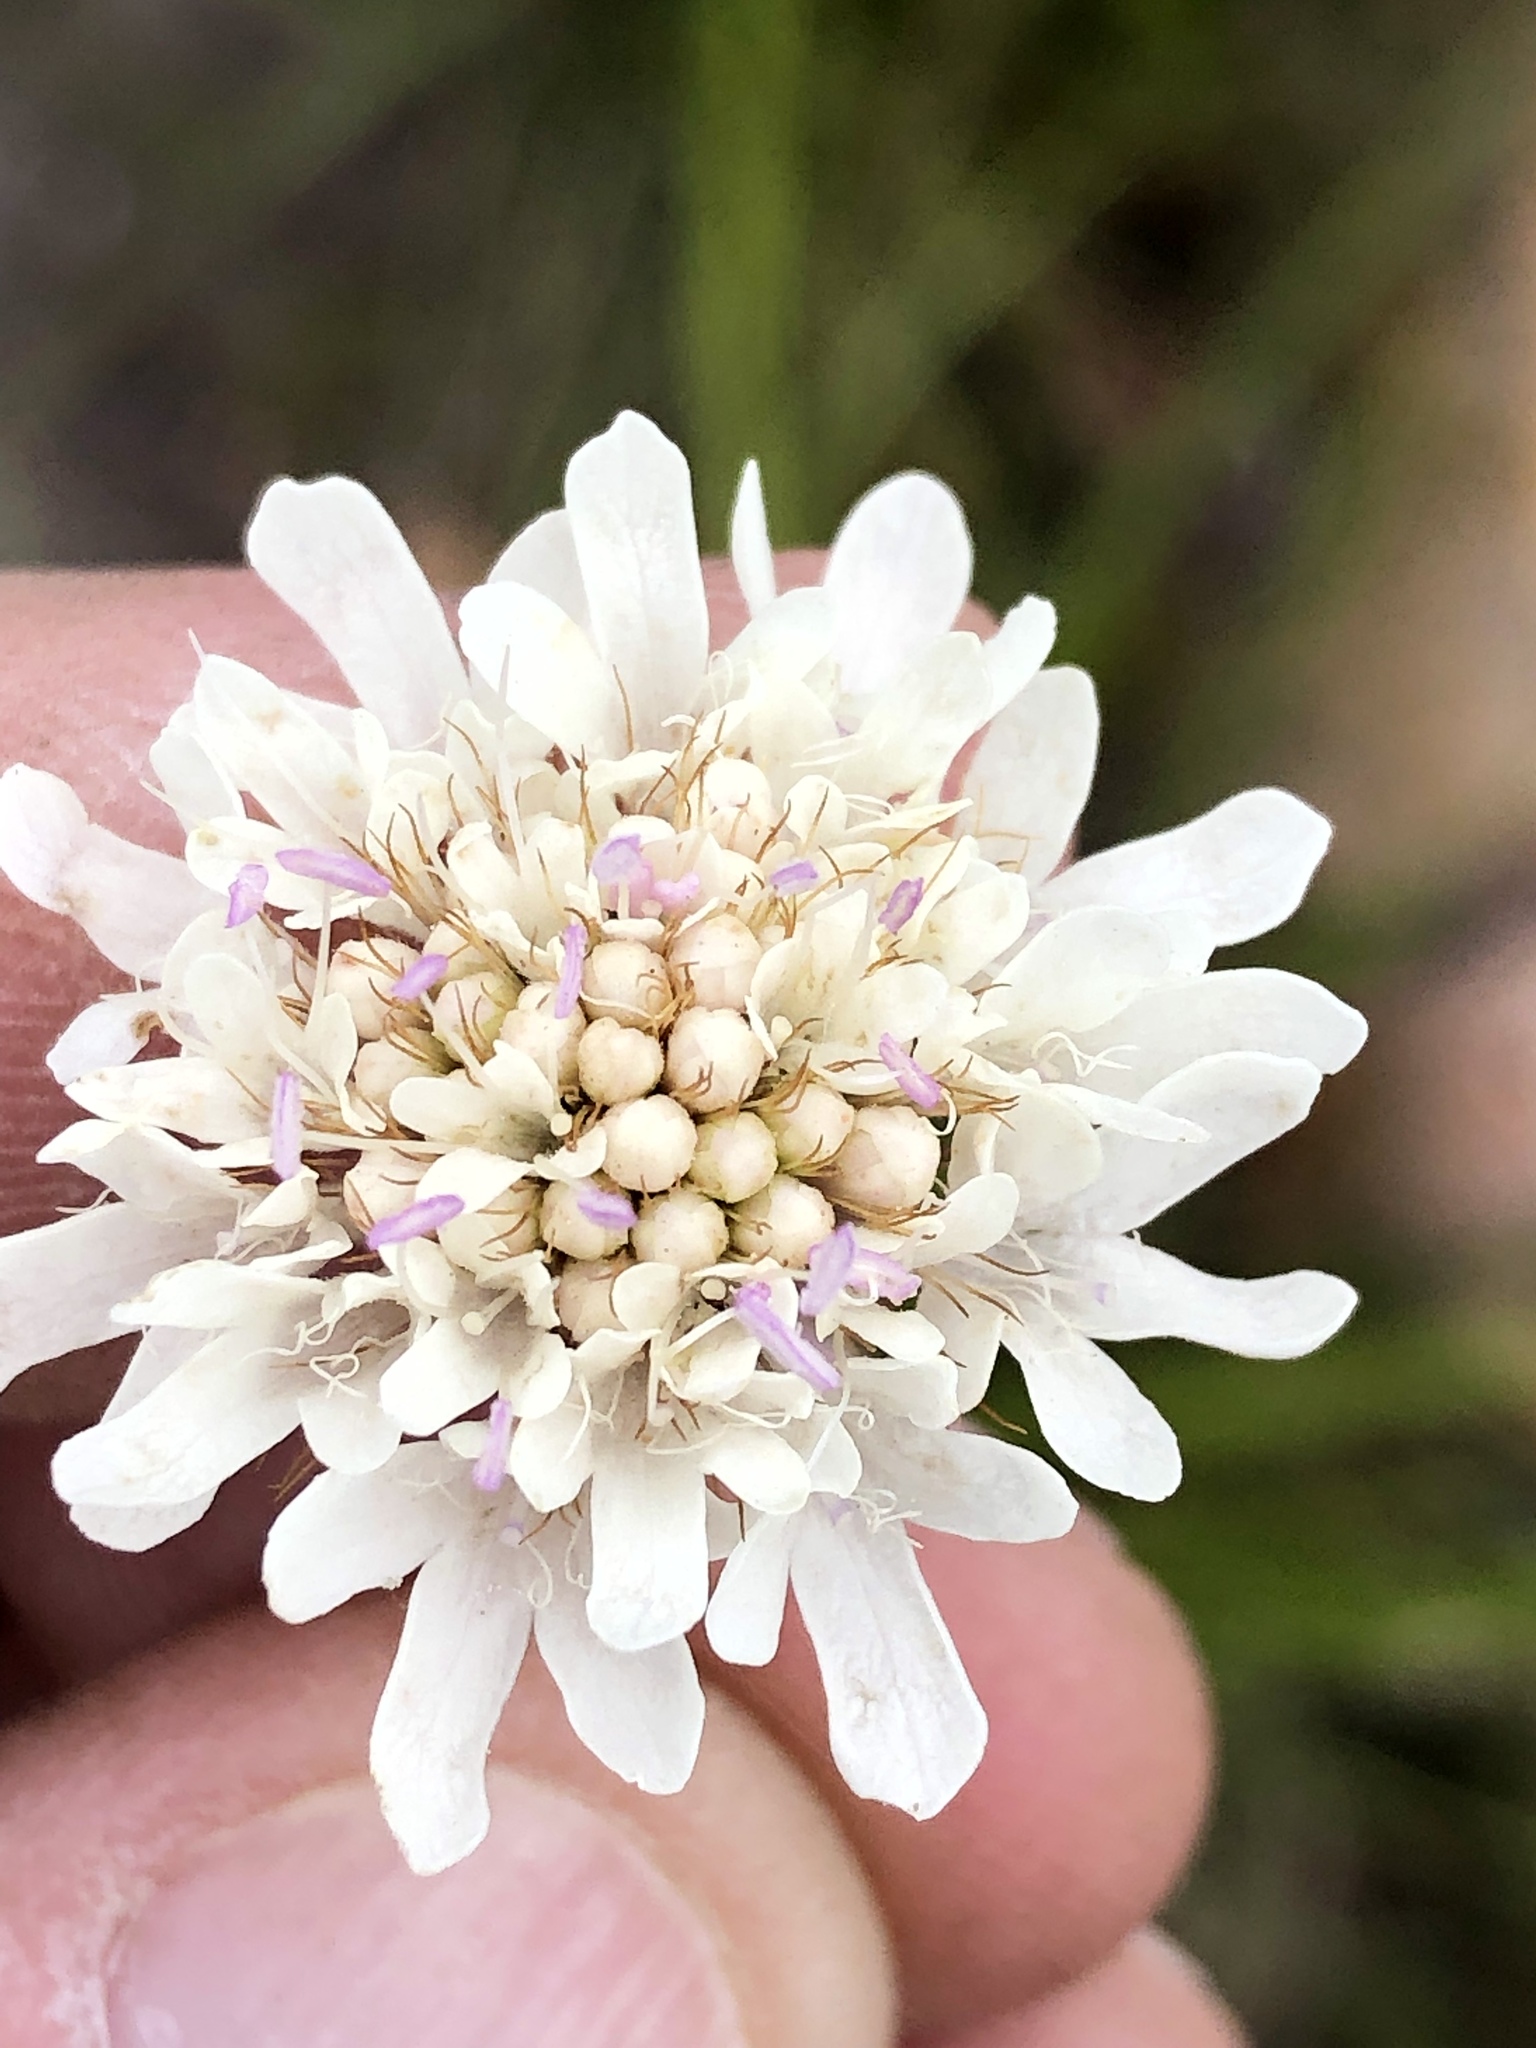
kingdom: Plantae
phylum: Tracheophyta
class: Magnoliopsida
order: Dipsacales
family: Caprifoliaceae
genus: Scabiosa
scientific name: Scabiosa columbaria
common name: Small scabious
